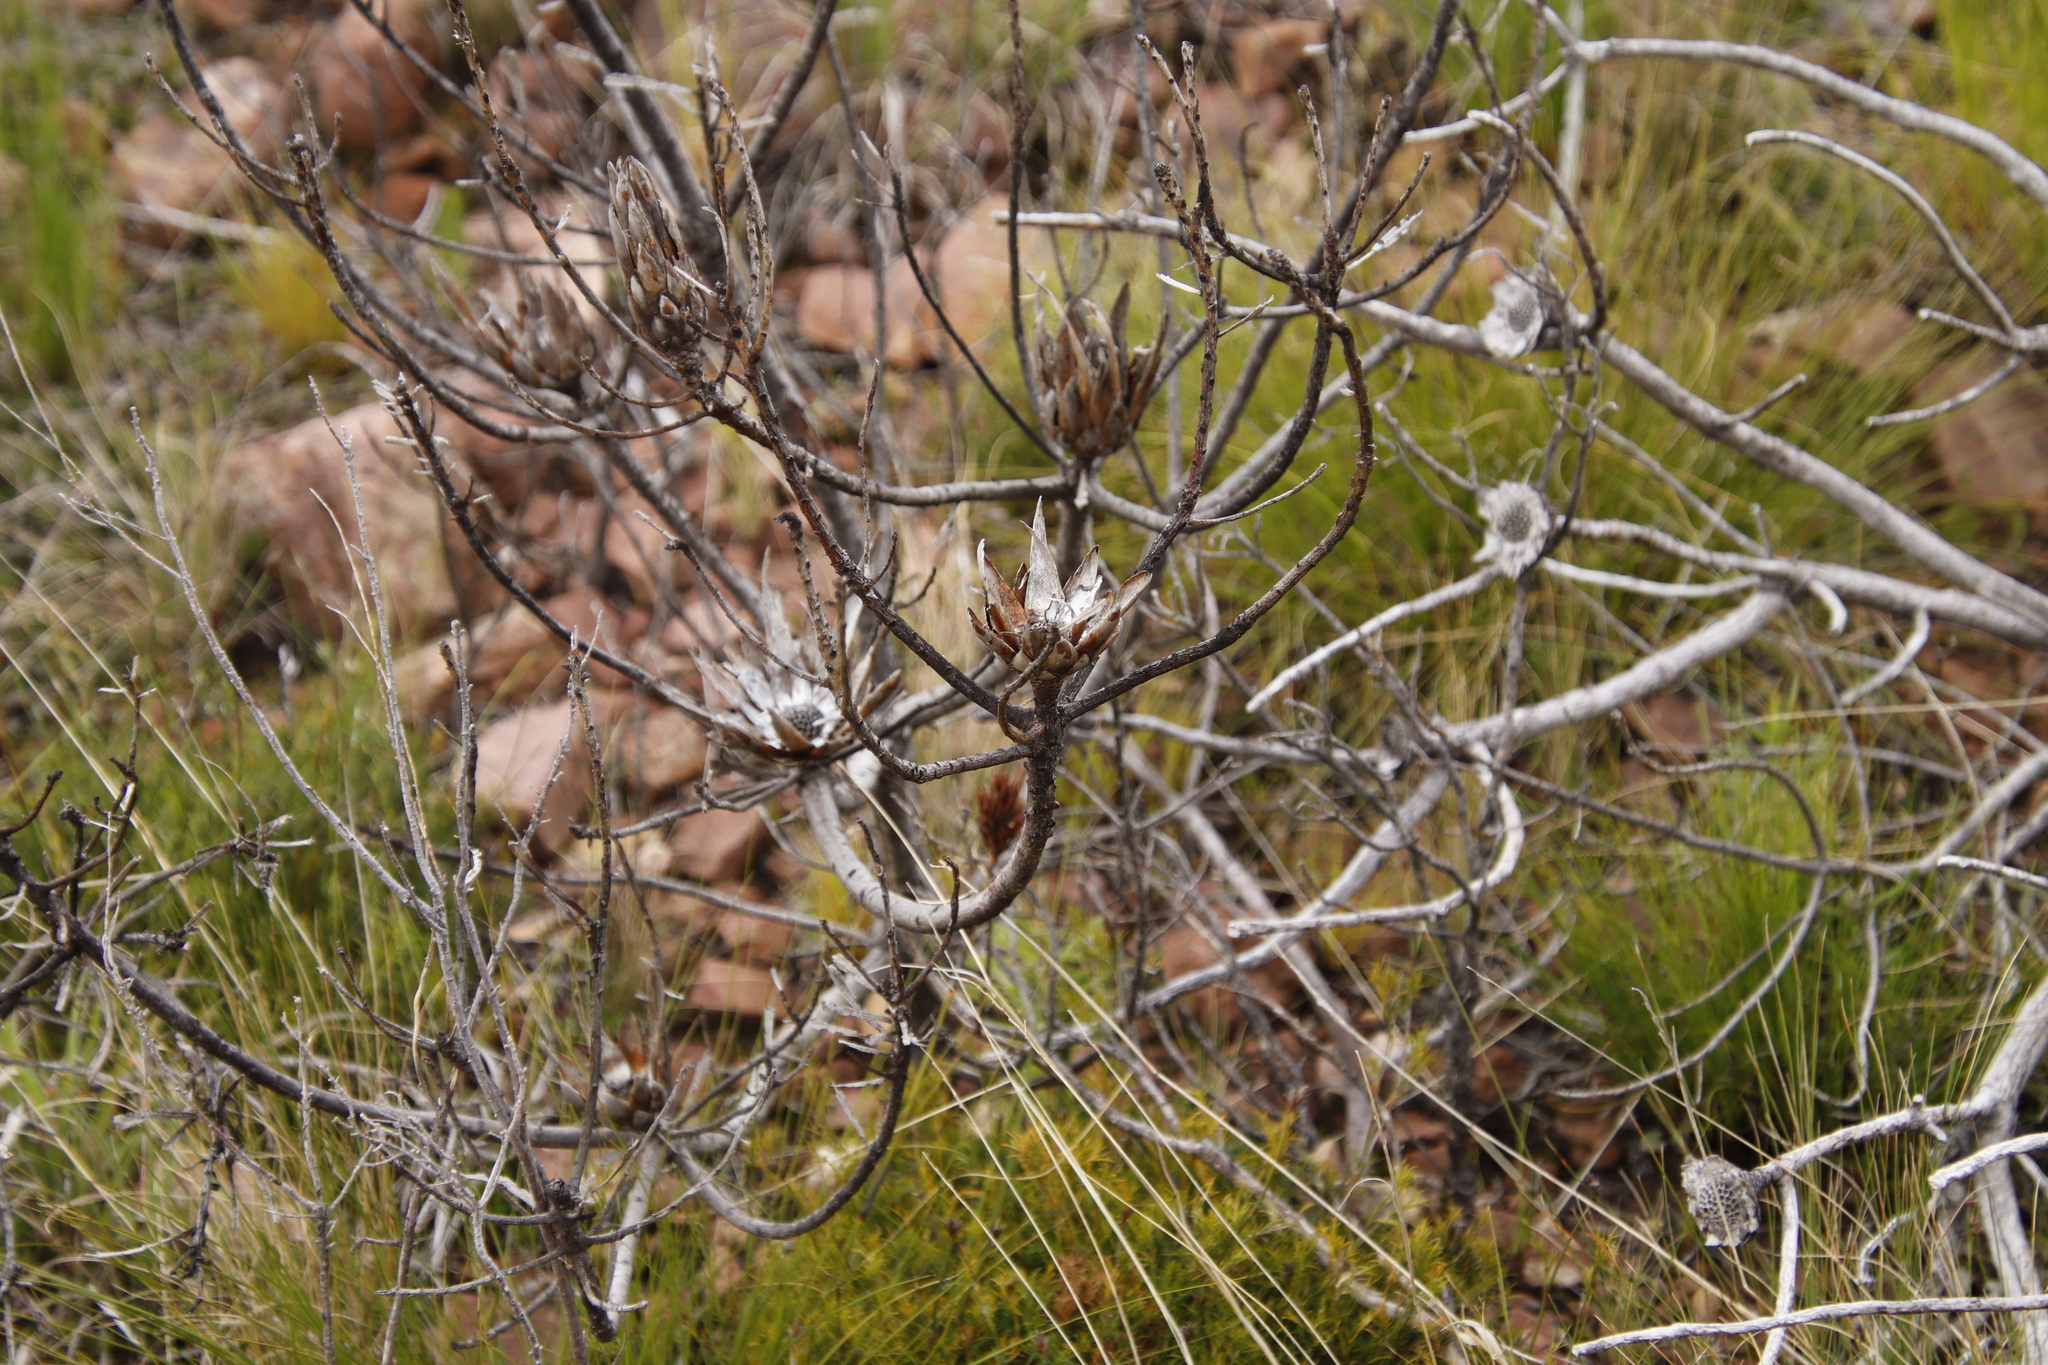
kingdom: Plantae
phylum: Tracheophyta
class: Magnoliopsida
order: Proteales
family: Proteaceae
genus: Protea
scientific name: Protea repens
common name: Sugarbush
